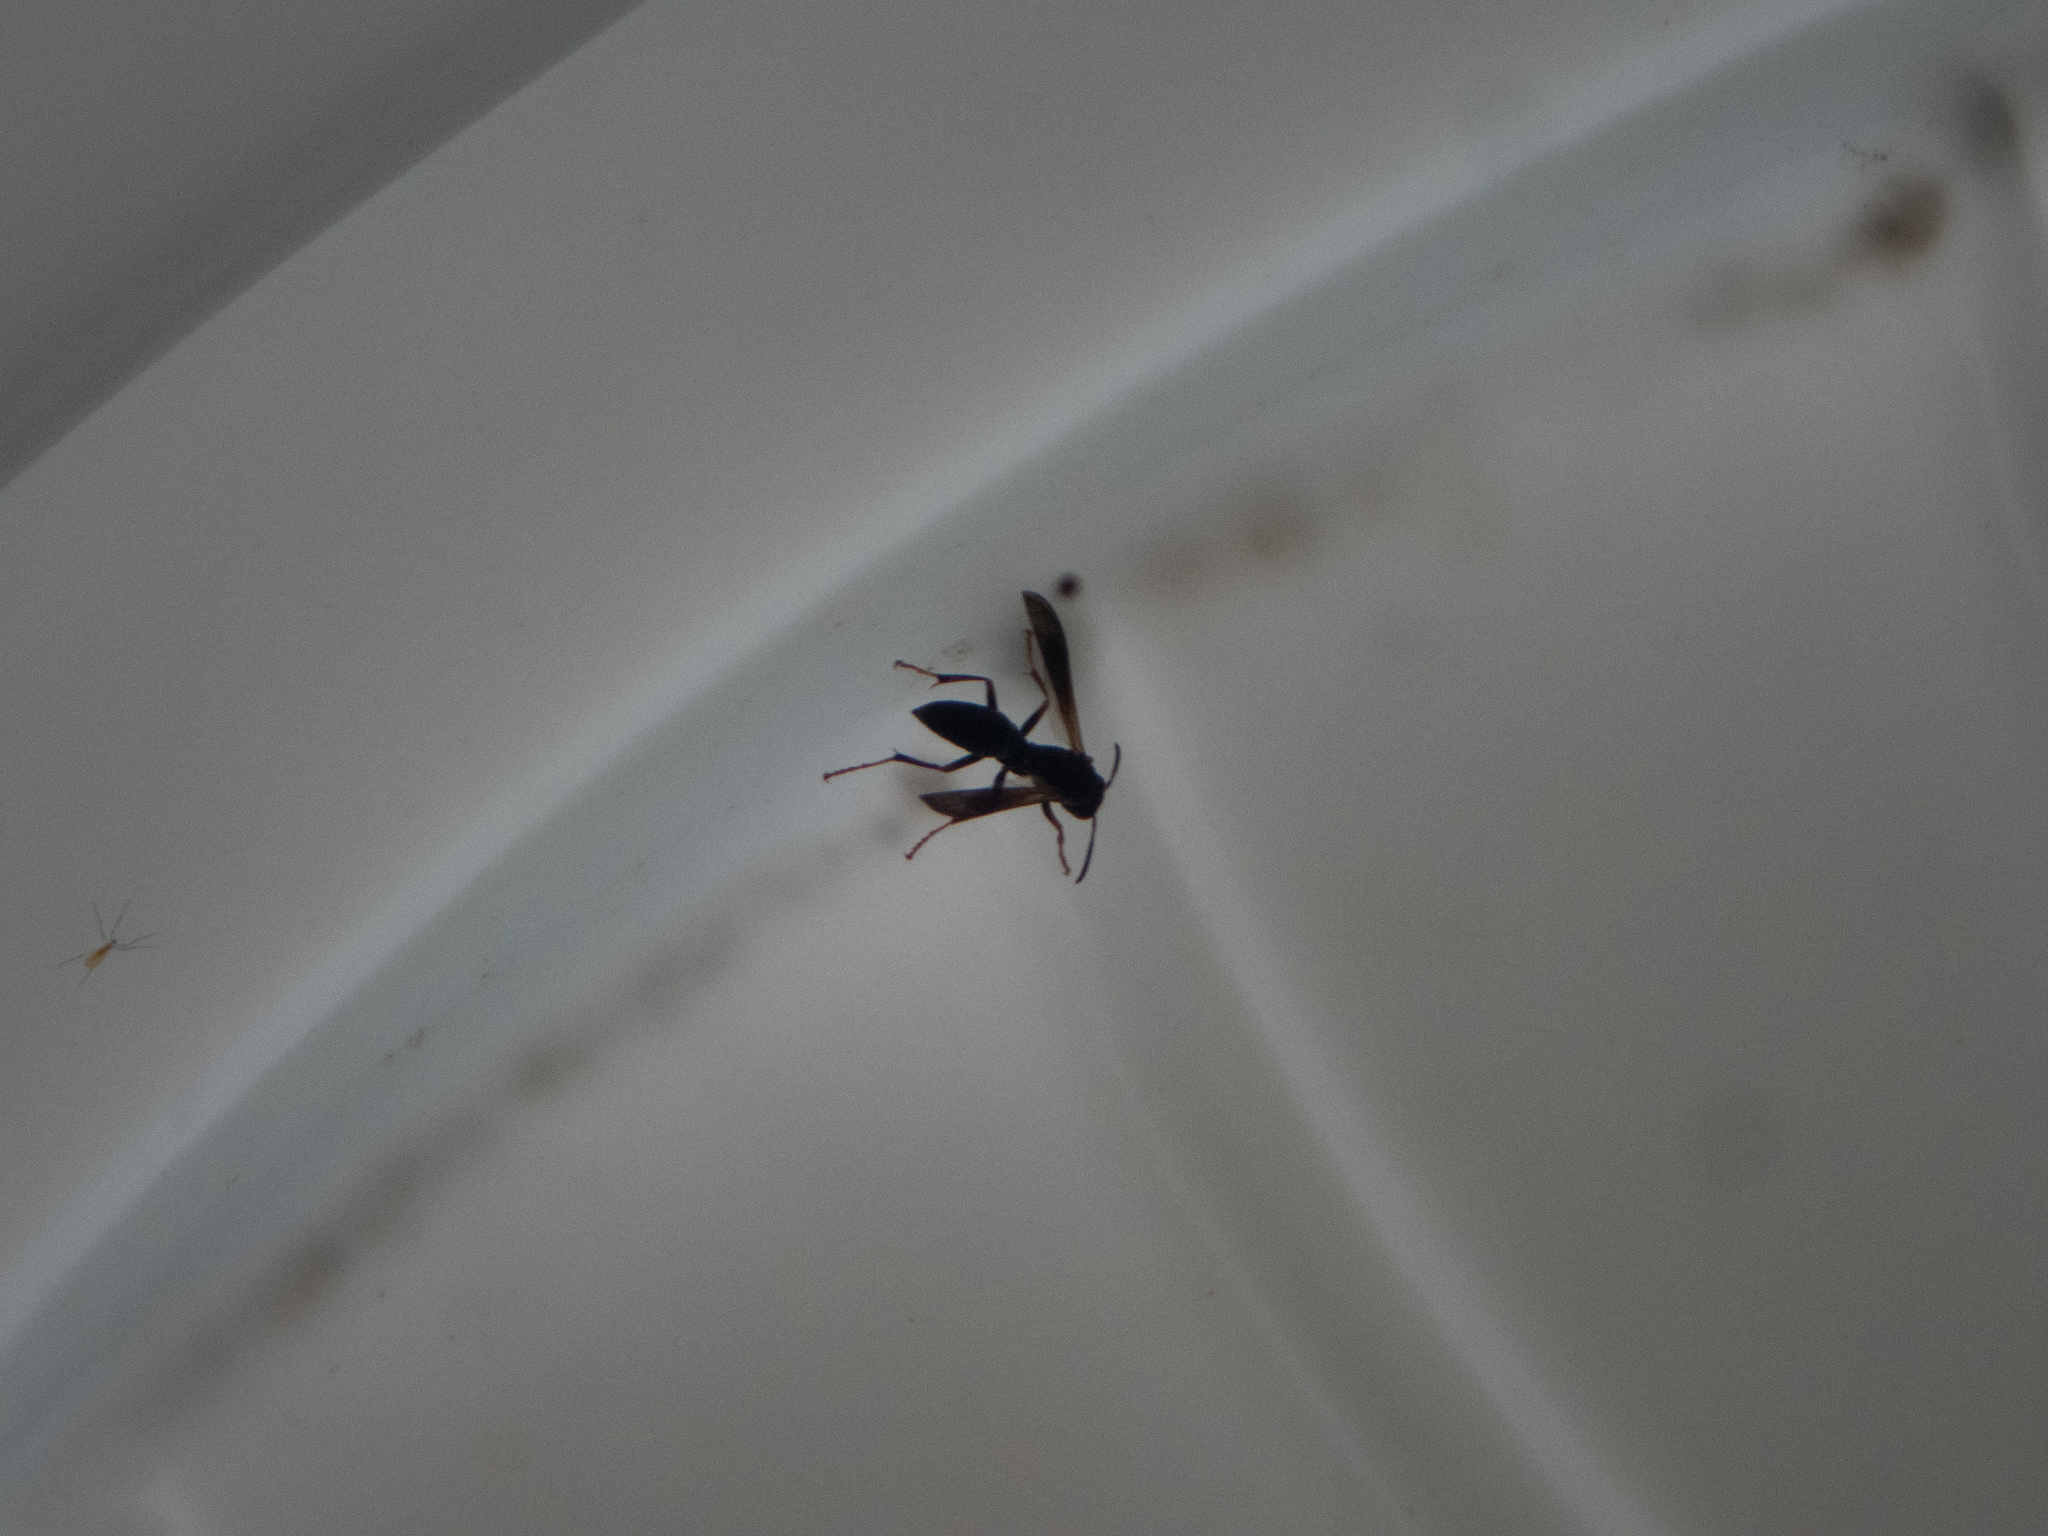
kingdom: Animalia
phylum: Arthropoda
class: Insecta
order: Hymenoptera
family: Vespidae
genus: Fuscopolistes
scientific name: Fuscopolistes
